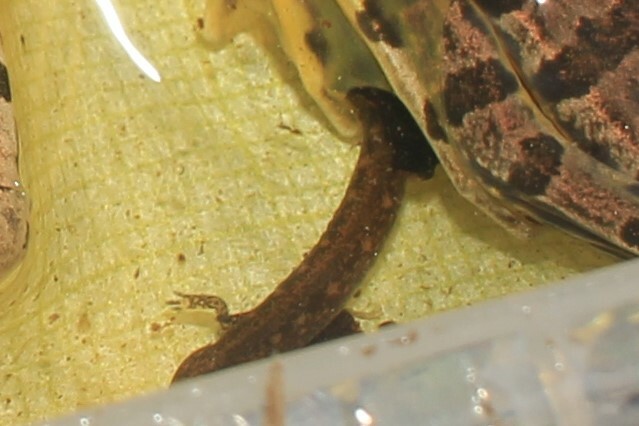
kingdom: Animalia
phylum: Chordata
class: Amphibia
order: Caudata
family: Plethodontidae
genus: Eurycea
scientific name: Eurycea bislineata
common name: Northern two-lined salamander
